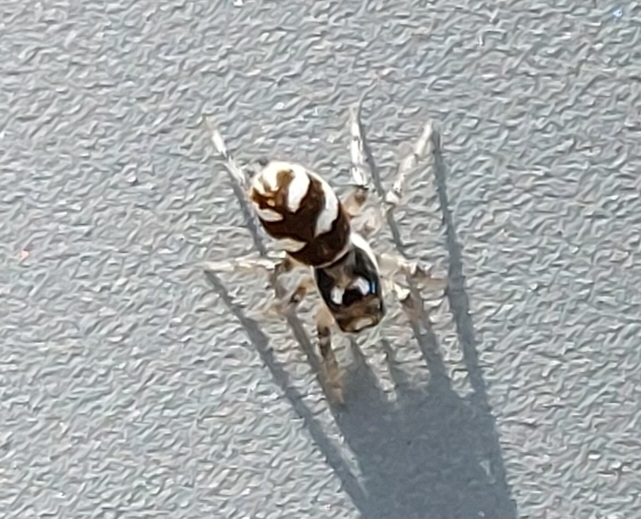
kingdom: Animalia
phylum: Arthropoda
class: Arachnida
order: Araneae
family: Salticidae
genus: Salticus
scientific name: Salticus scenicus
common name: Zebra jumper
